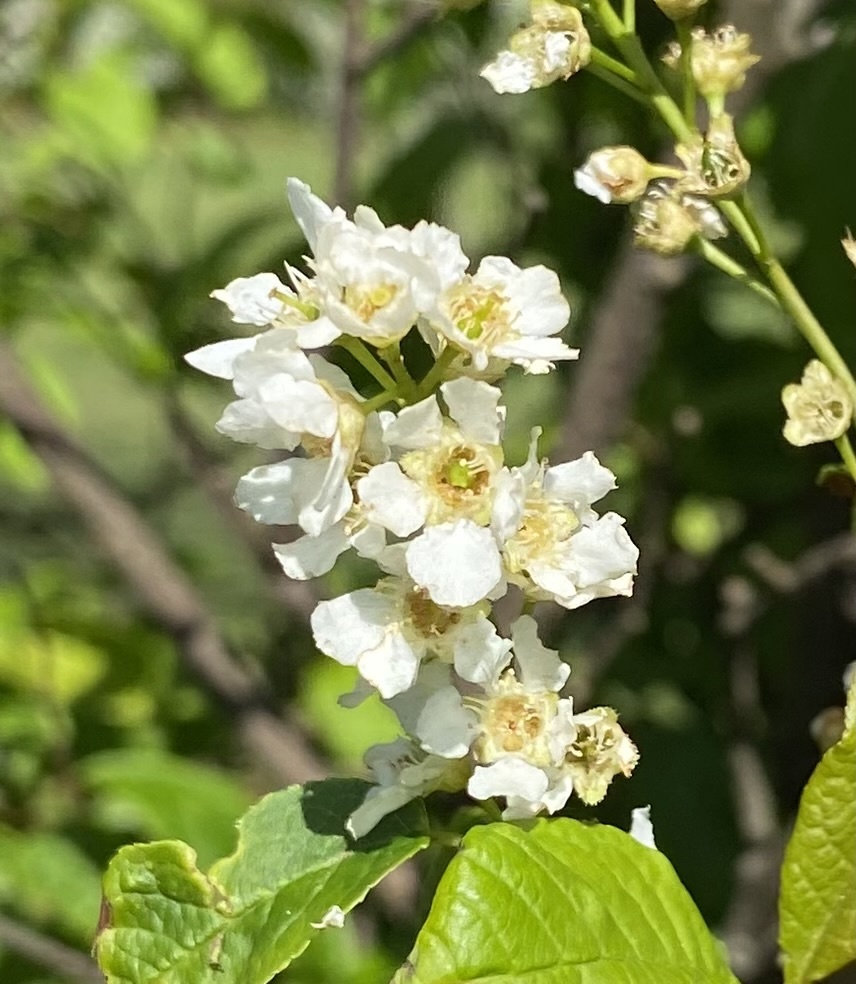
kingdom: Plantae
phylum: Tracheophyta
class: Magnoliopsida
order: Rosales
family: Rosaceae
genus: Prunus
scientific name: Prunus padus
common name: Bird cherry
